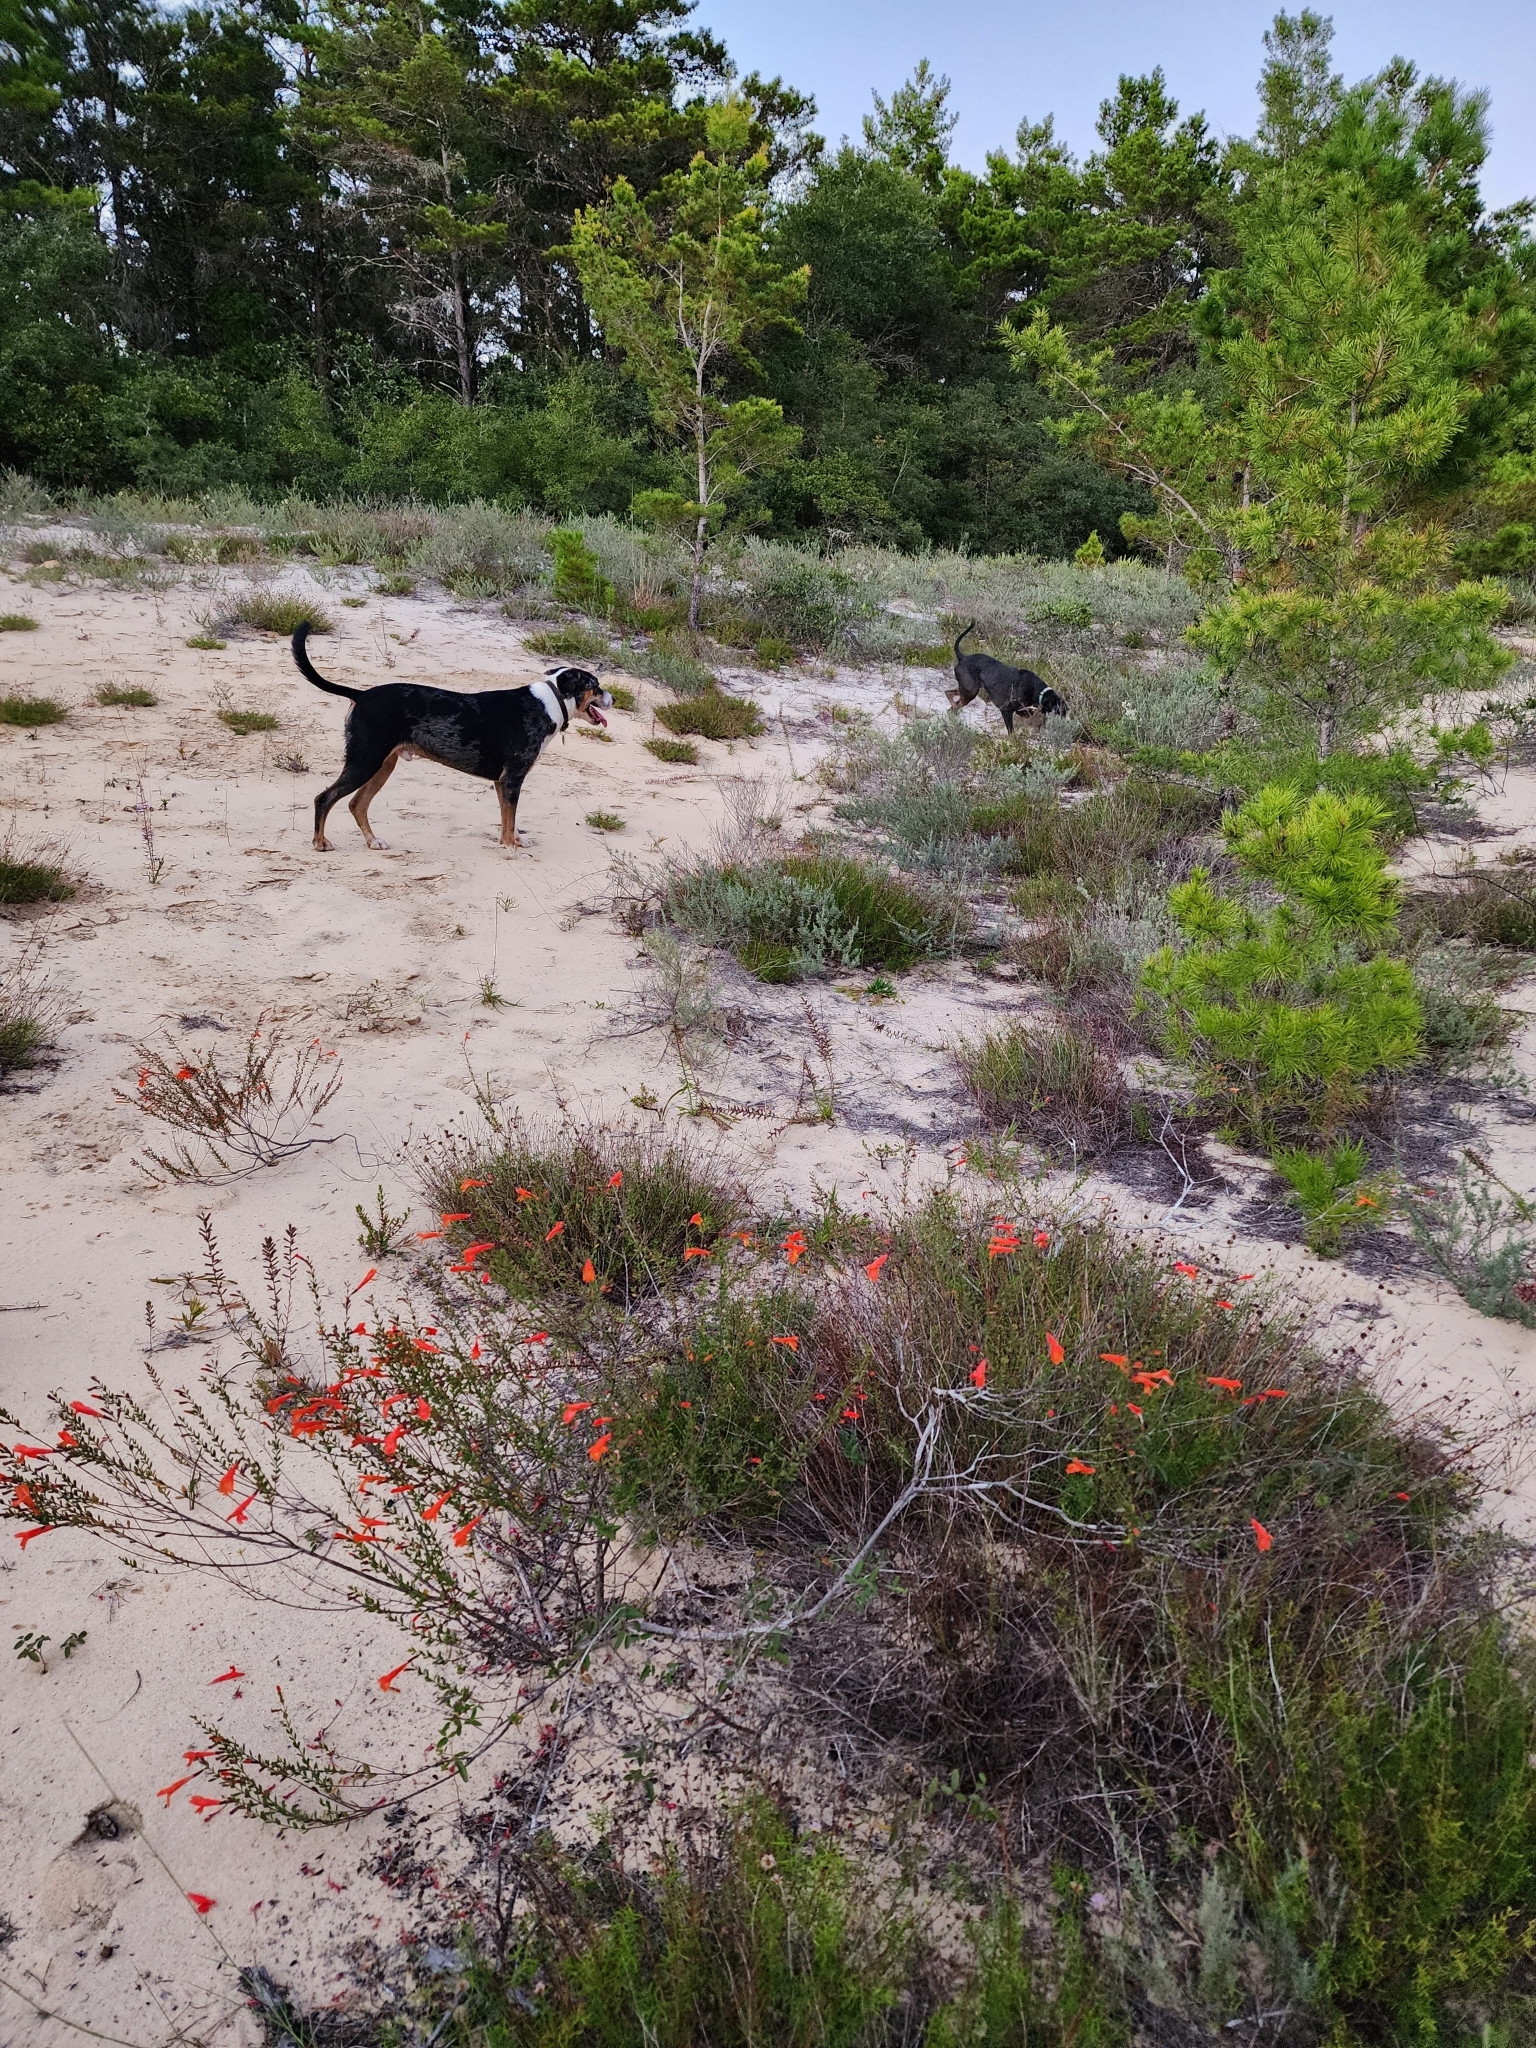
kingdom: Plantae
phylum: Tracheophyta
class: Magnoliopsida
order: Lamiales
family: Lamiaceae
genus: Clinopodium
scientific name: Clinopodium coccineum
